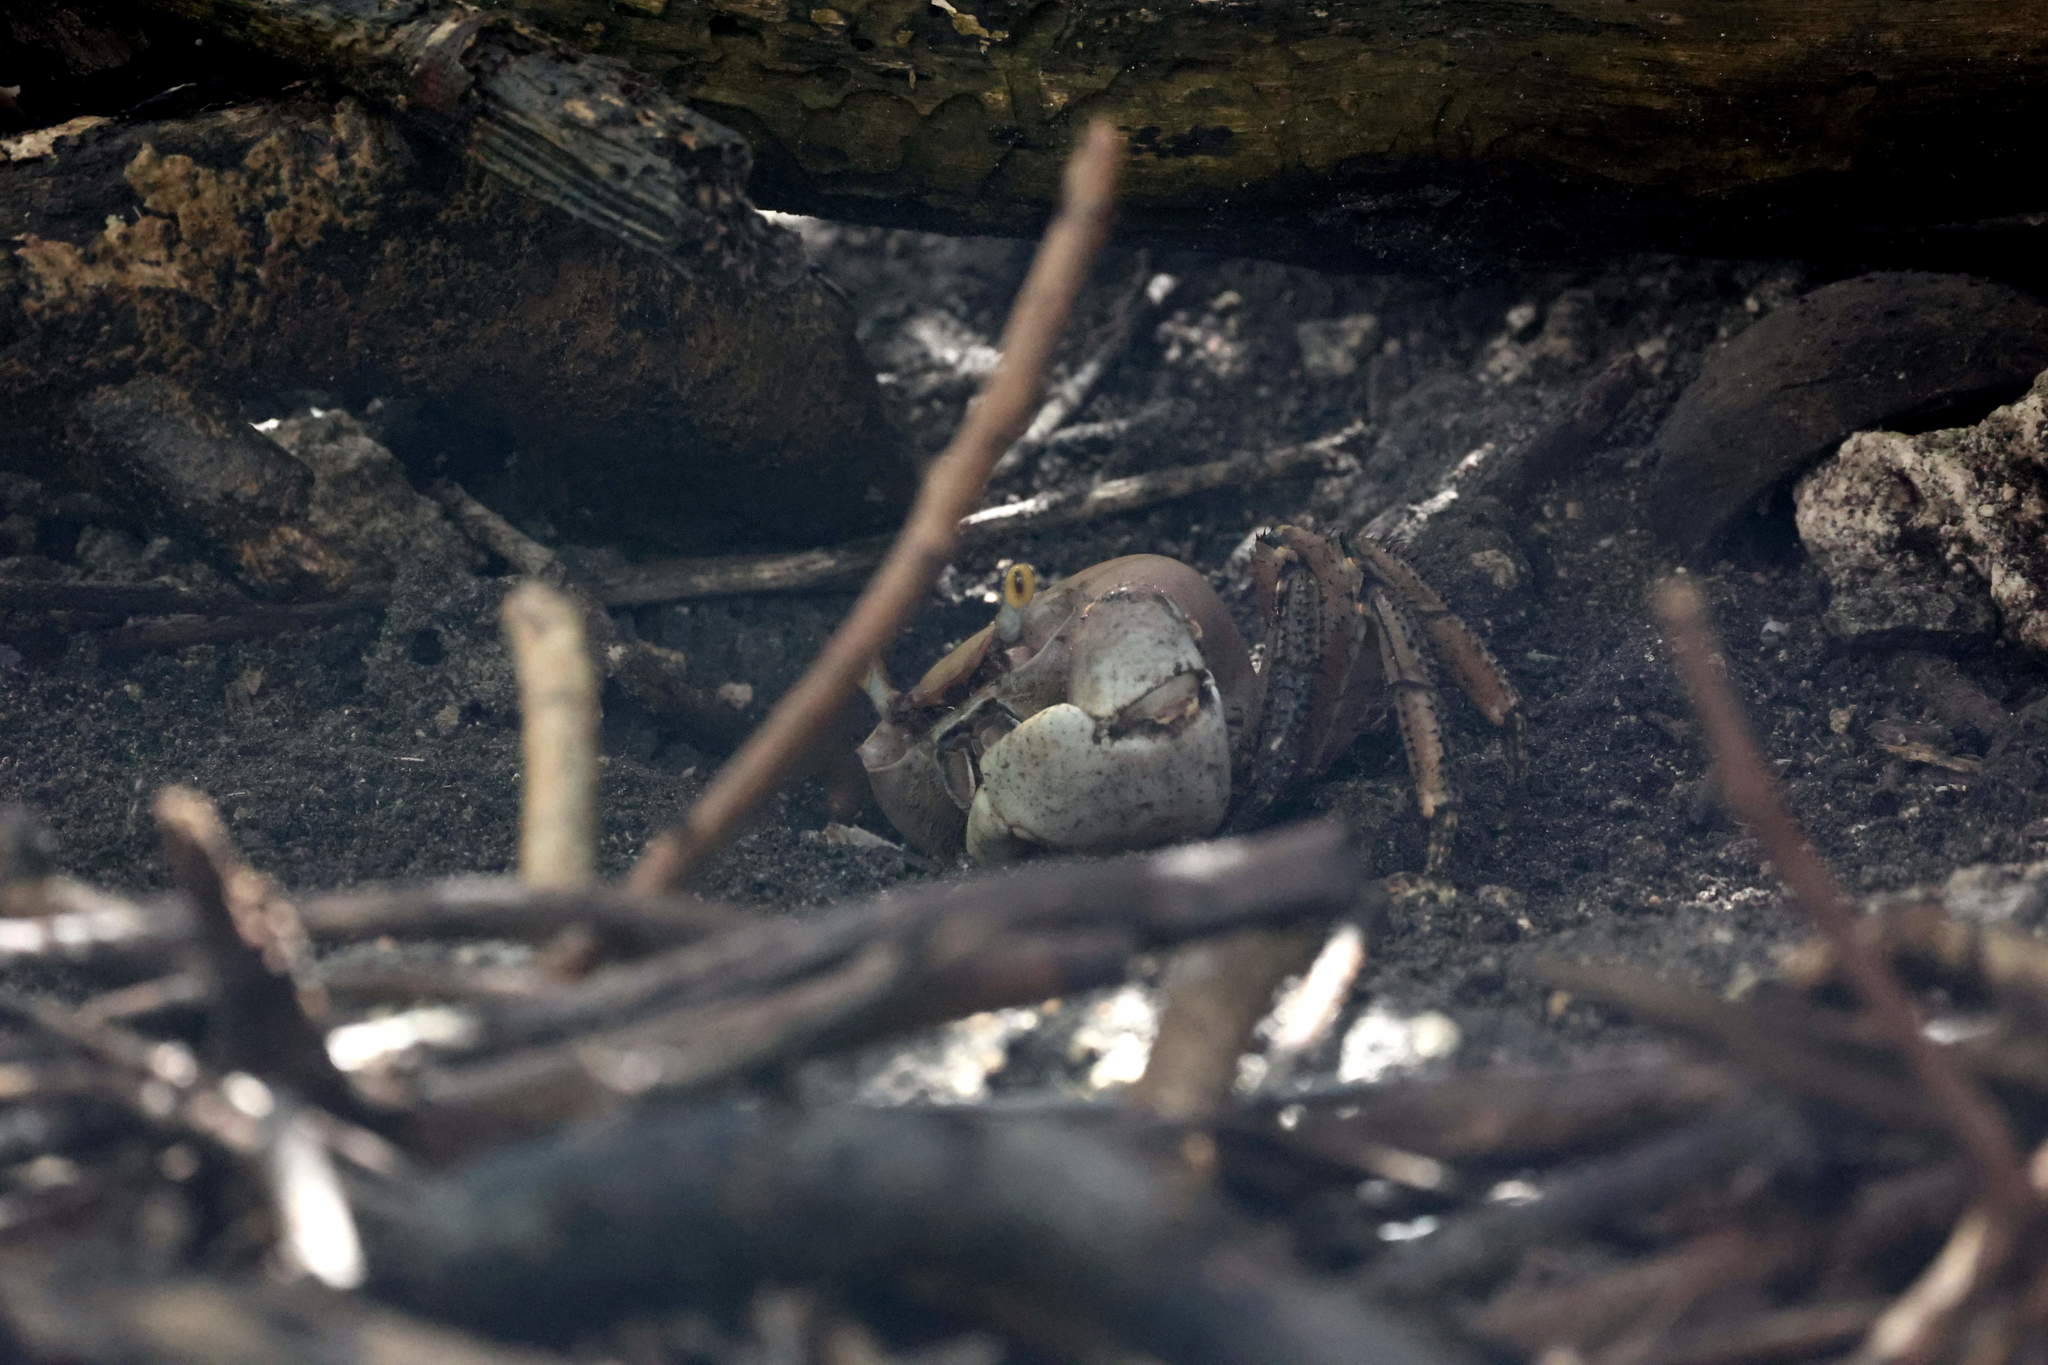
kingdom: Animalia
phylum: Arthropoda
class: Malacostraca
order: Decapoda
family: Gecarcinidae
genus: Cardisoma
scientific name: Cardisoma guanhumi
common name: Great land crab
